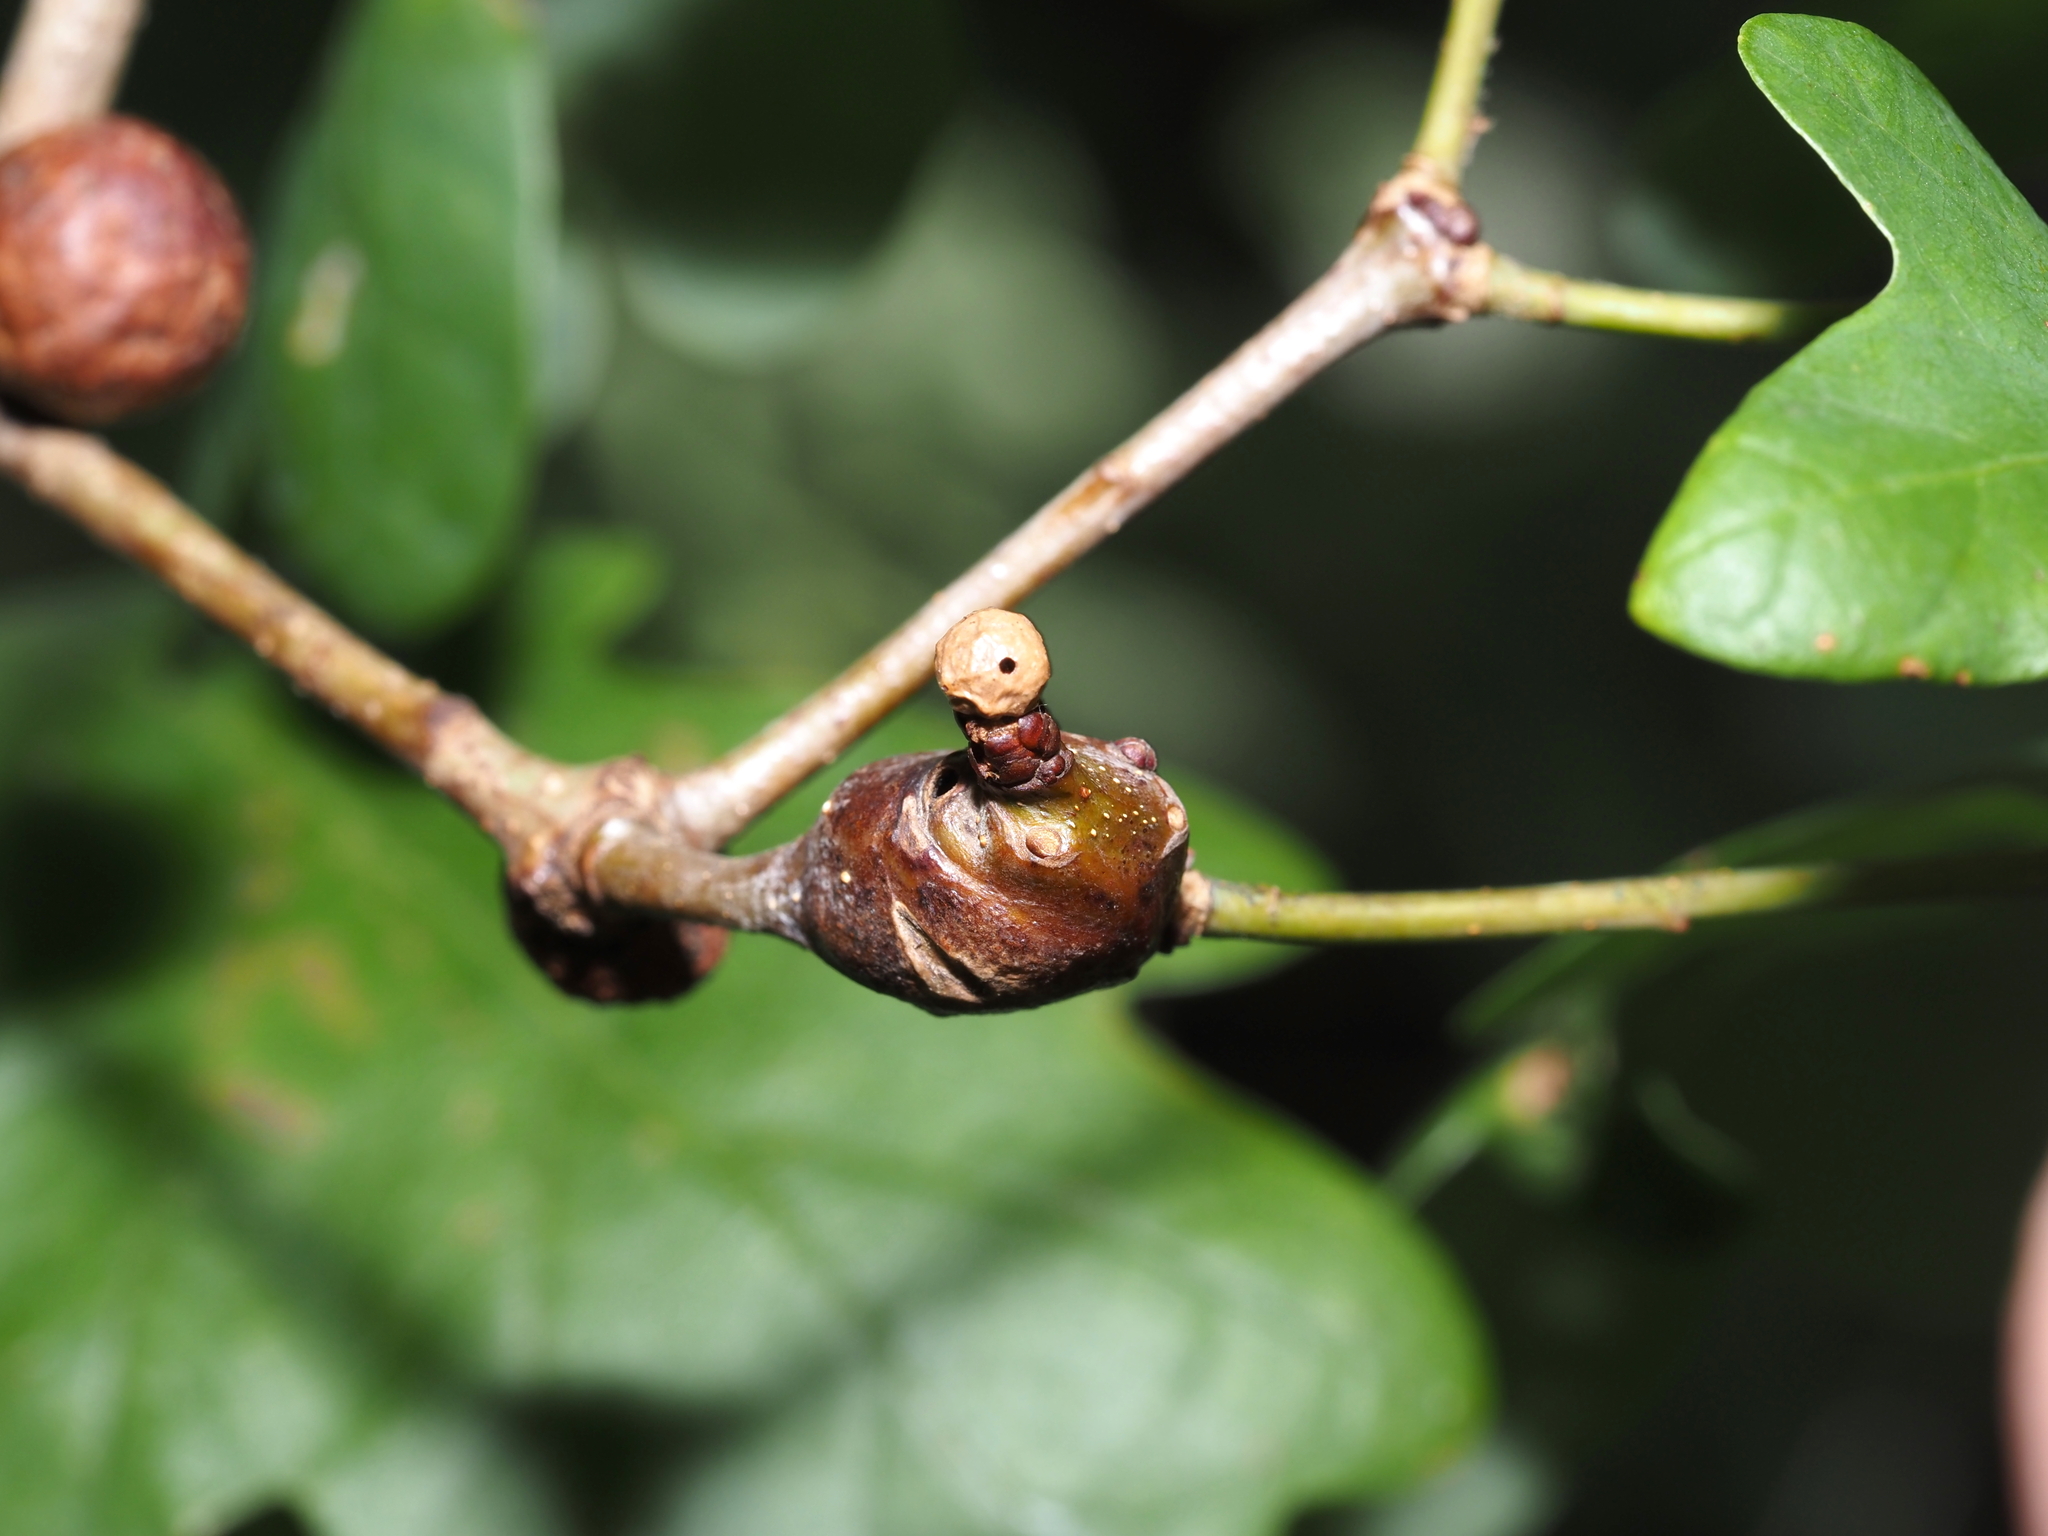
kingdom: Animalia
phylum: Arthropoda
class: Insecta
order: Hymenoptera
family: Cynipidae
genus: Andricus
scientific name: Andricus
